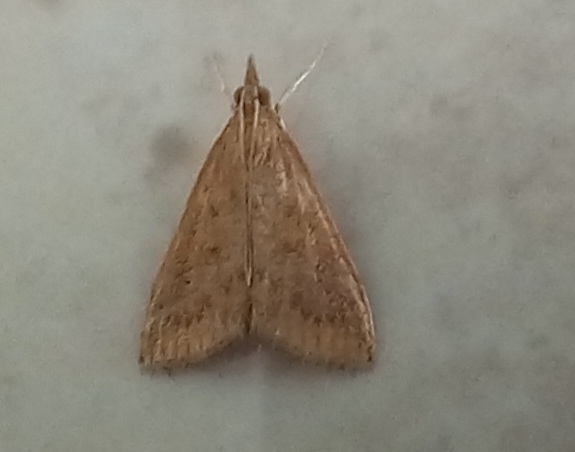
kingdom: Animalia
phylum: Arthropoda
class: Insecta
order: Lepidoptera
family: Crambidae
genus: Udea
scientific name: Udea ferrugalis
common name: Rusty dot
